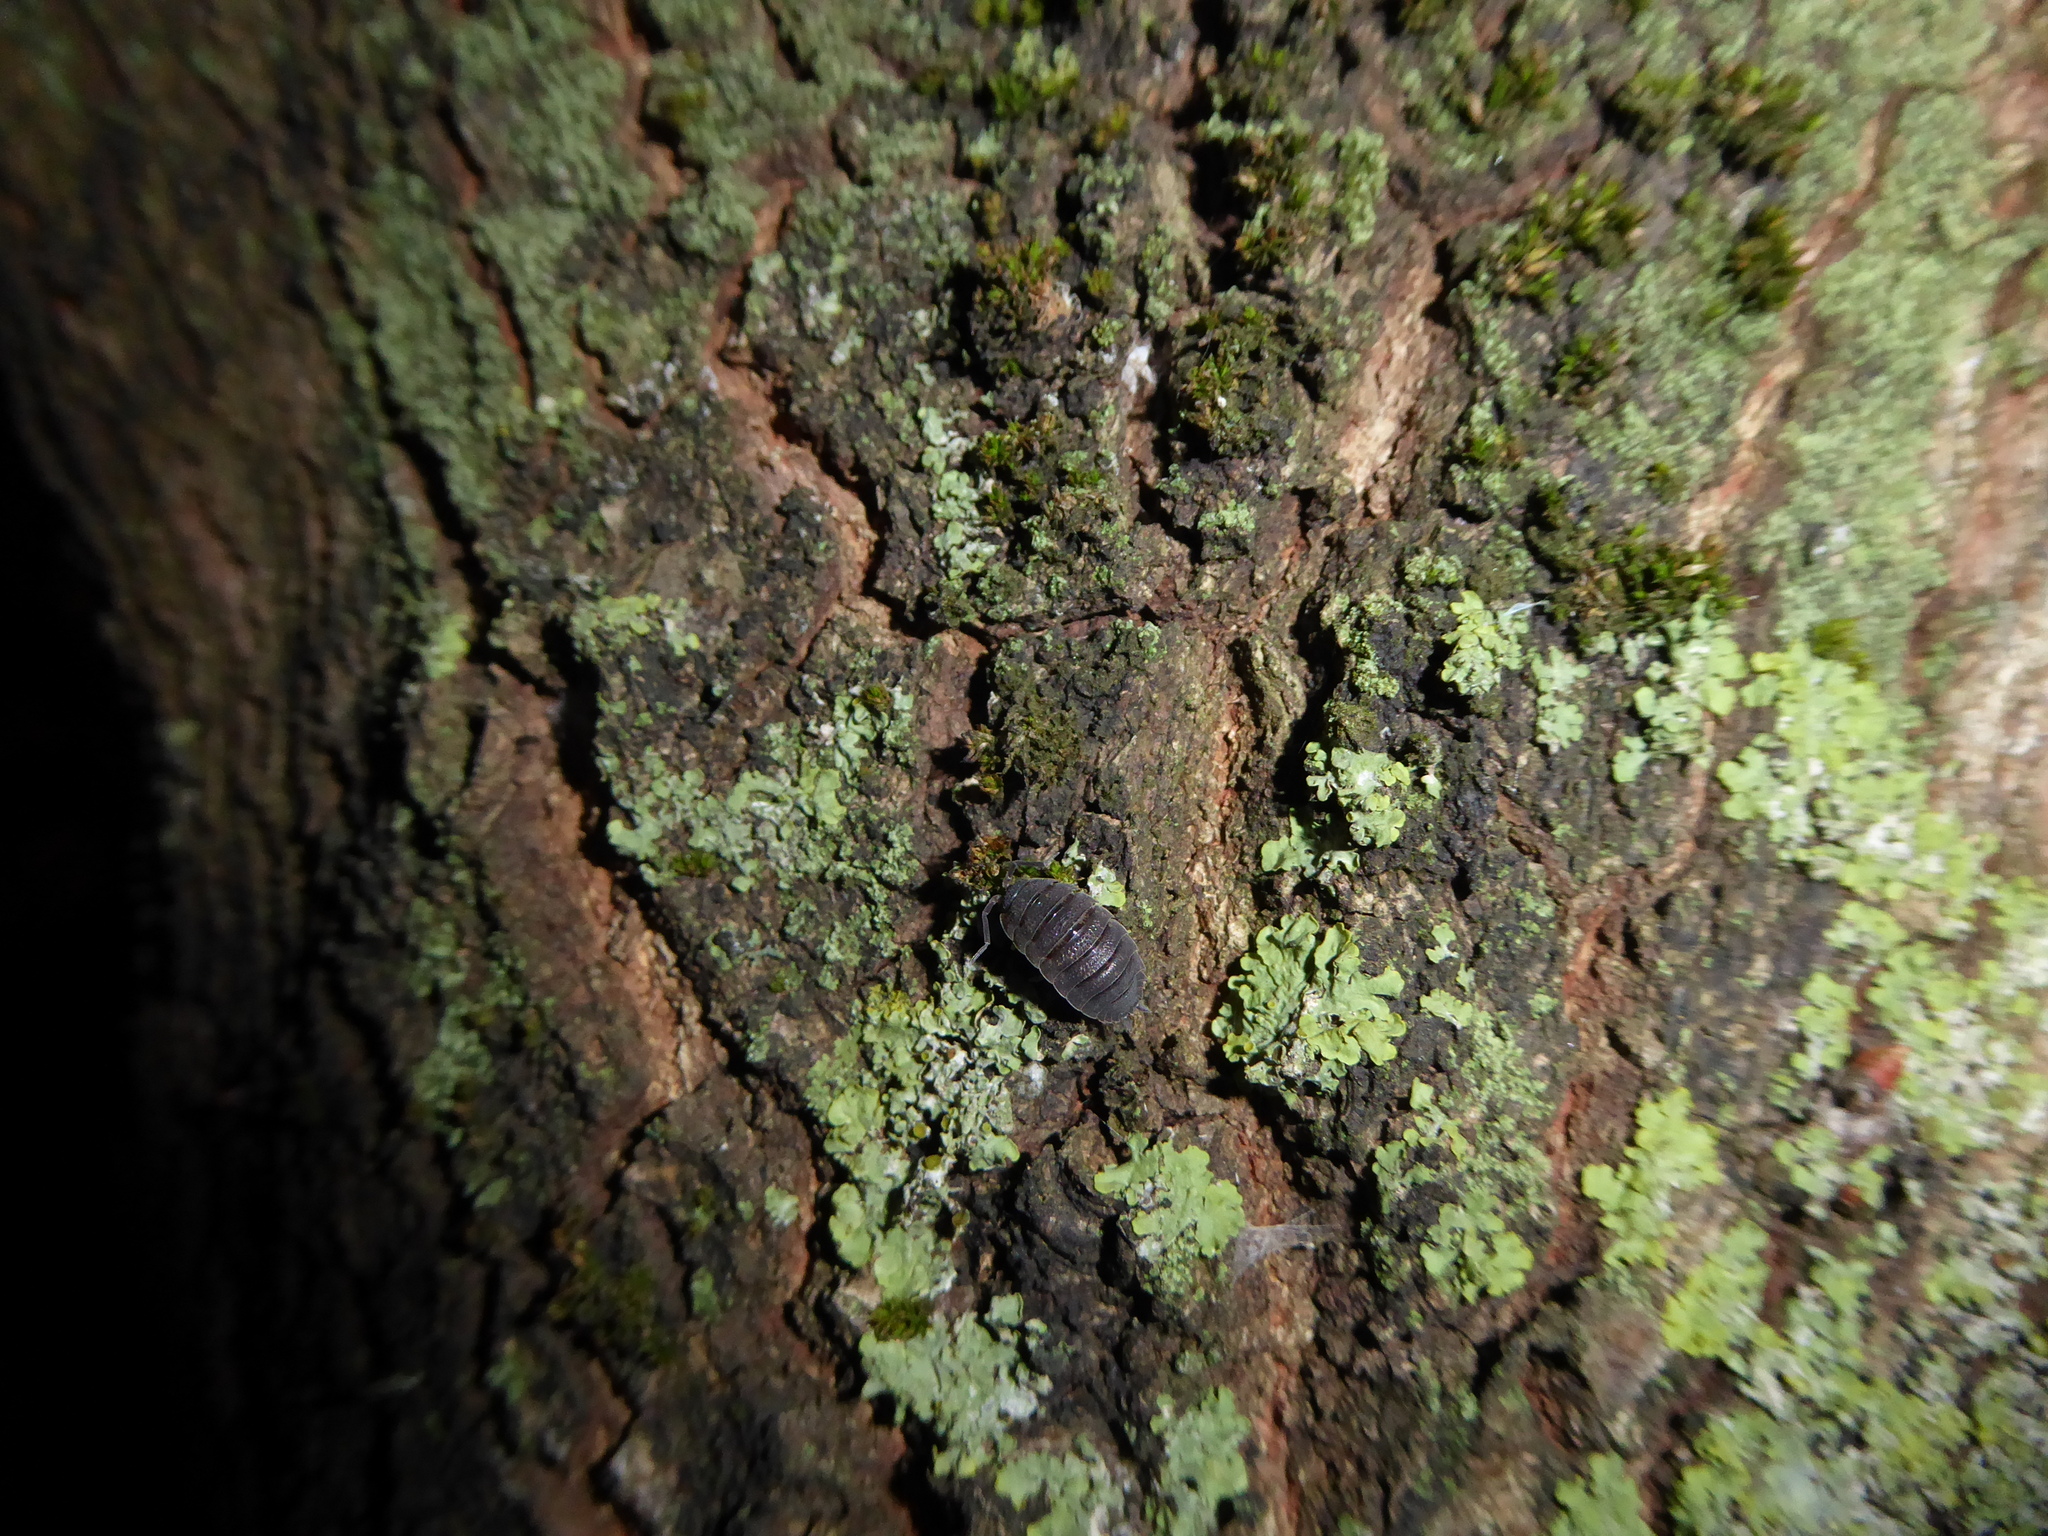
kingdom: Animalia
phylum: Arthropoda
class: Malacostraca
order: Isopoda
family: Porcellionidae
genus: Porcellio
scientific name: Porcellio scaber
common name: Common rough woodlouse
